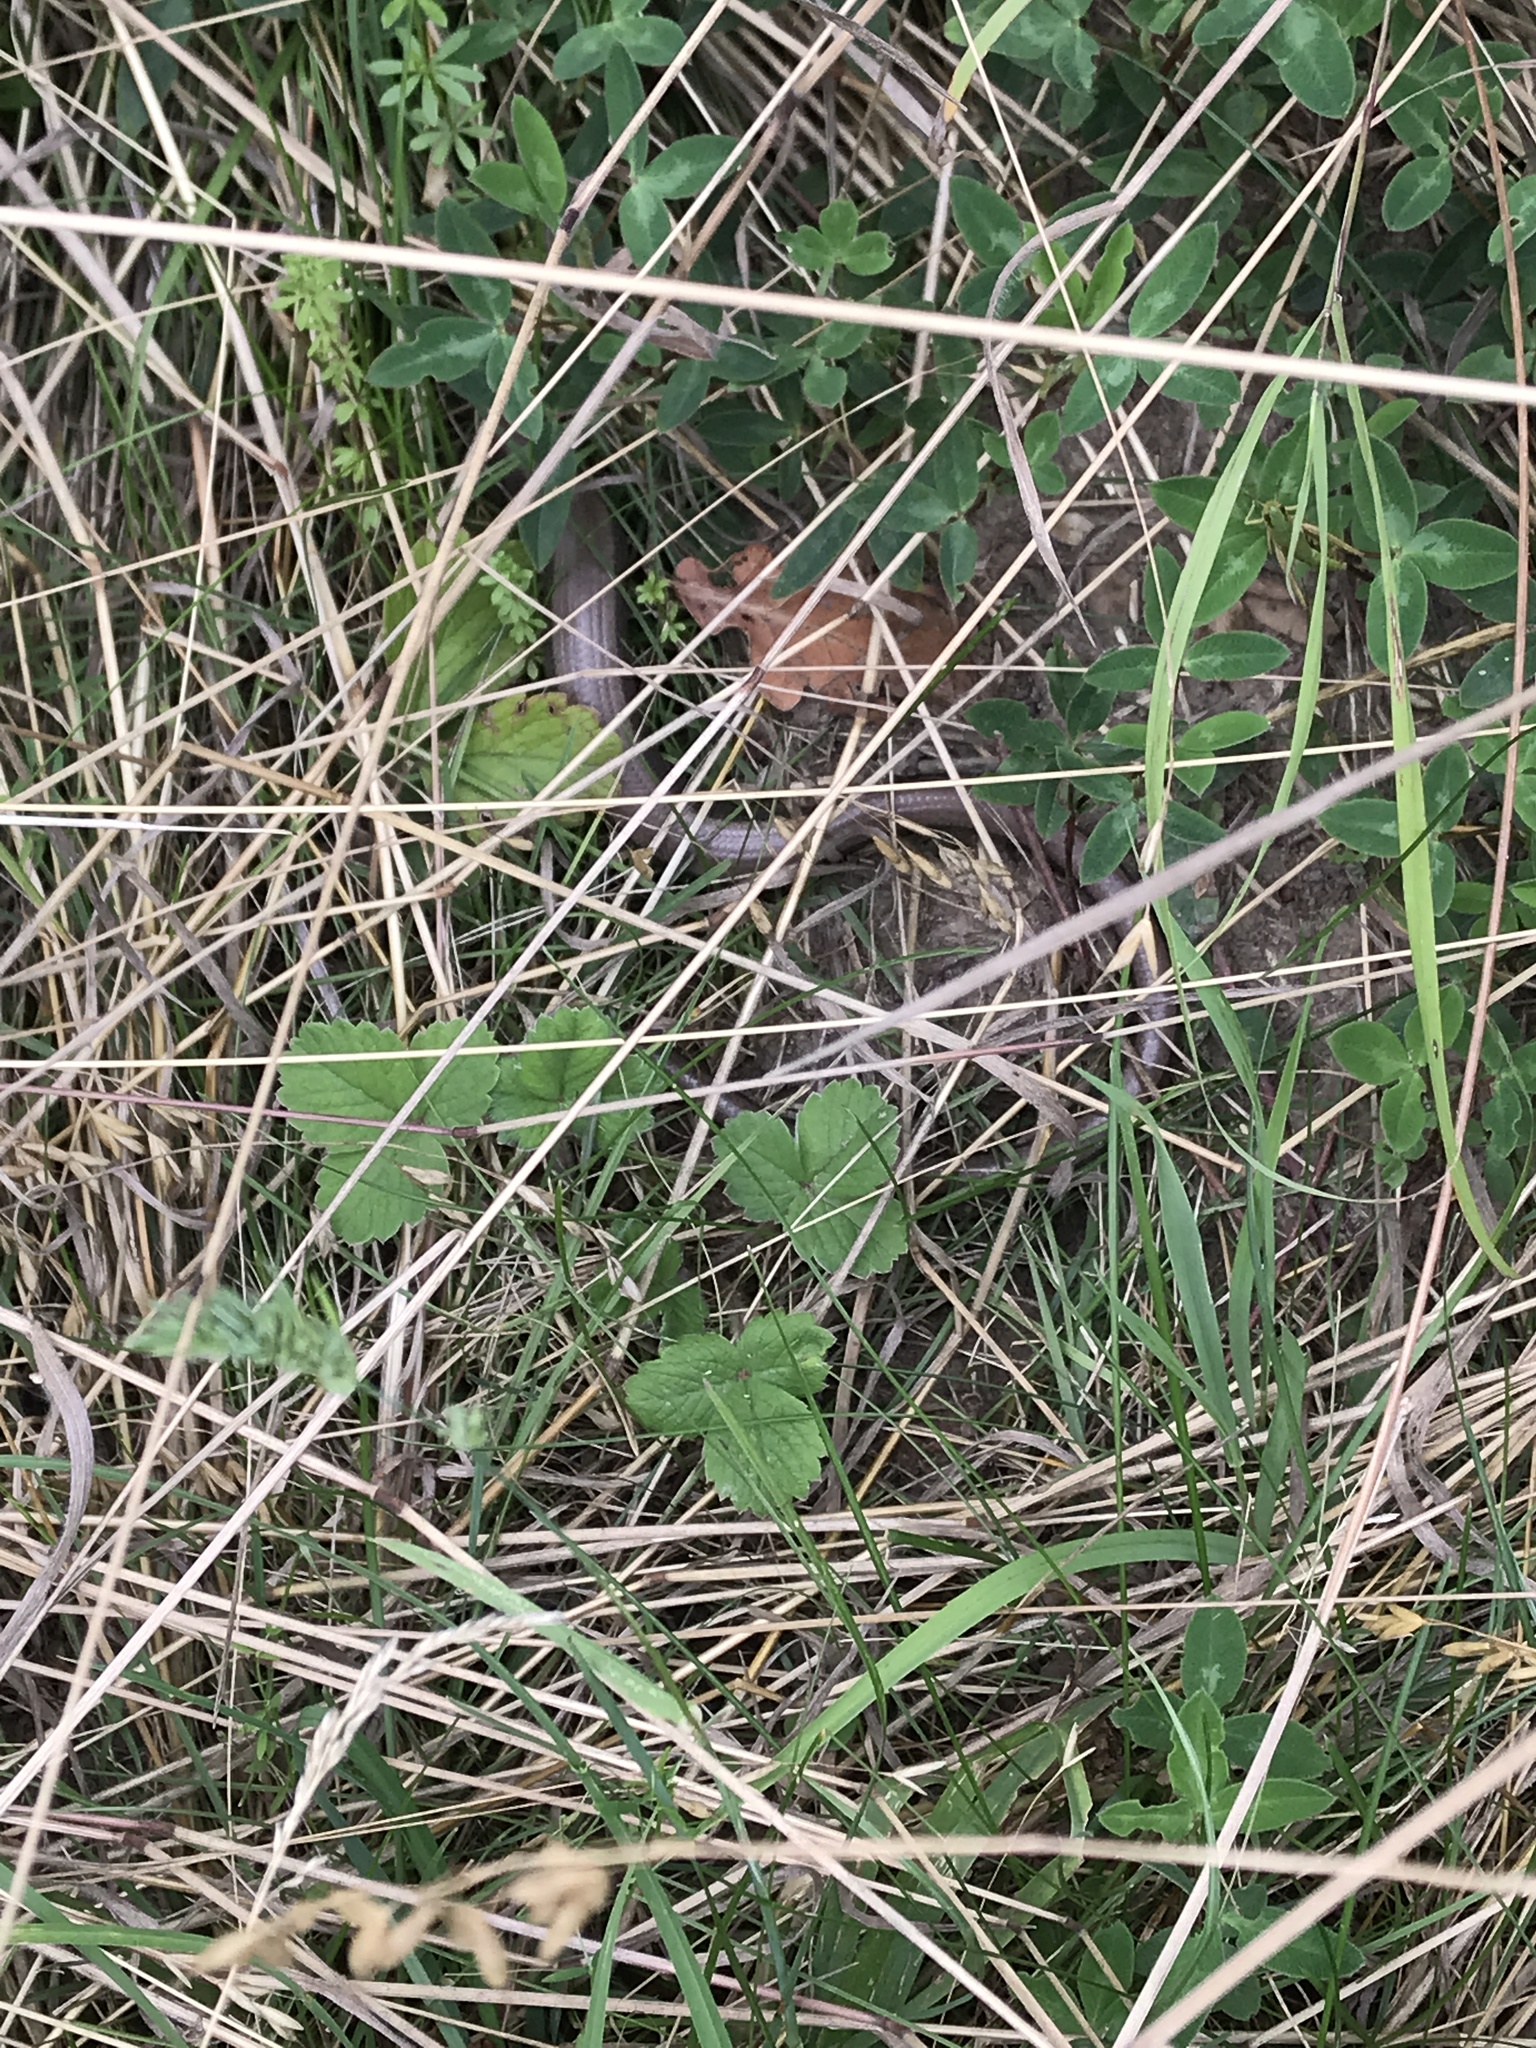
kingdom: Animalia
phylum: Chordata
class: Squamata
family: Anguidae
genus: Anguis
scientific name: Anguis fragilis
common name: Slow worm
